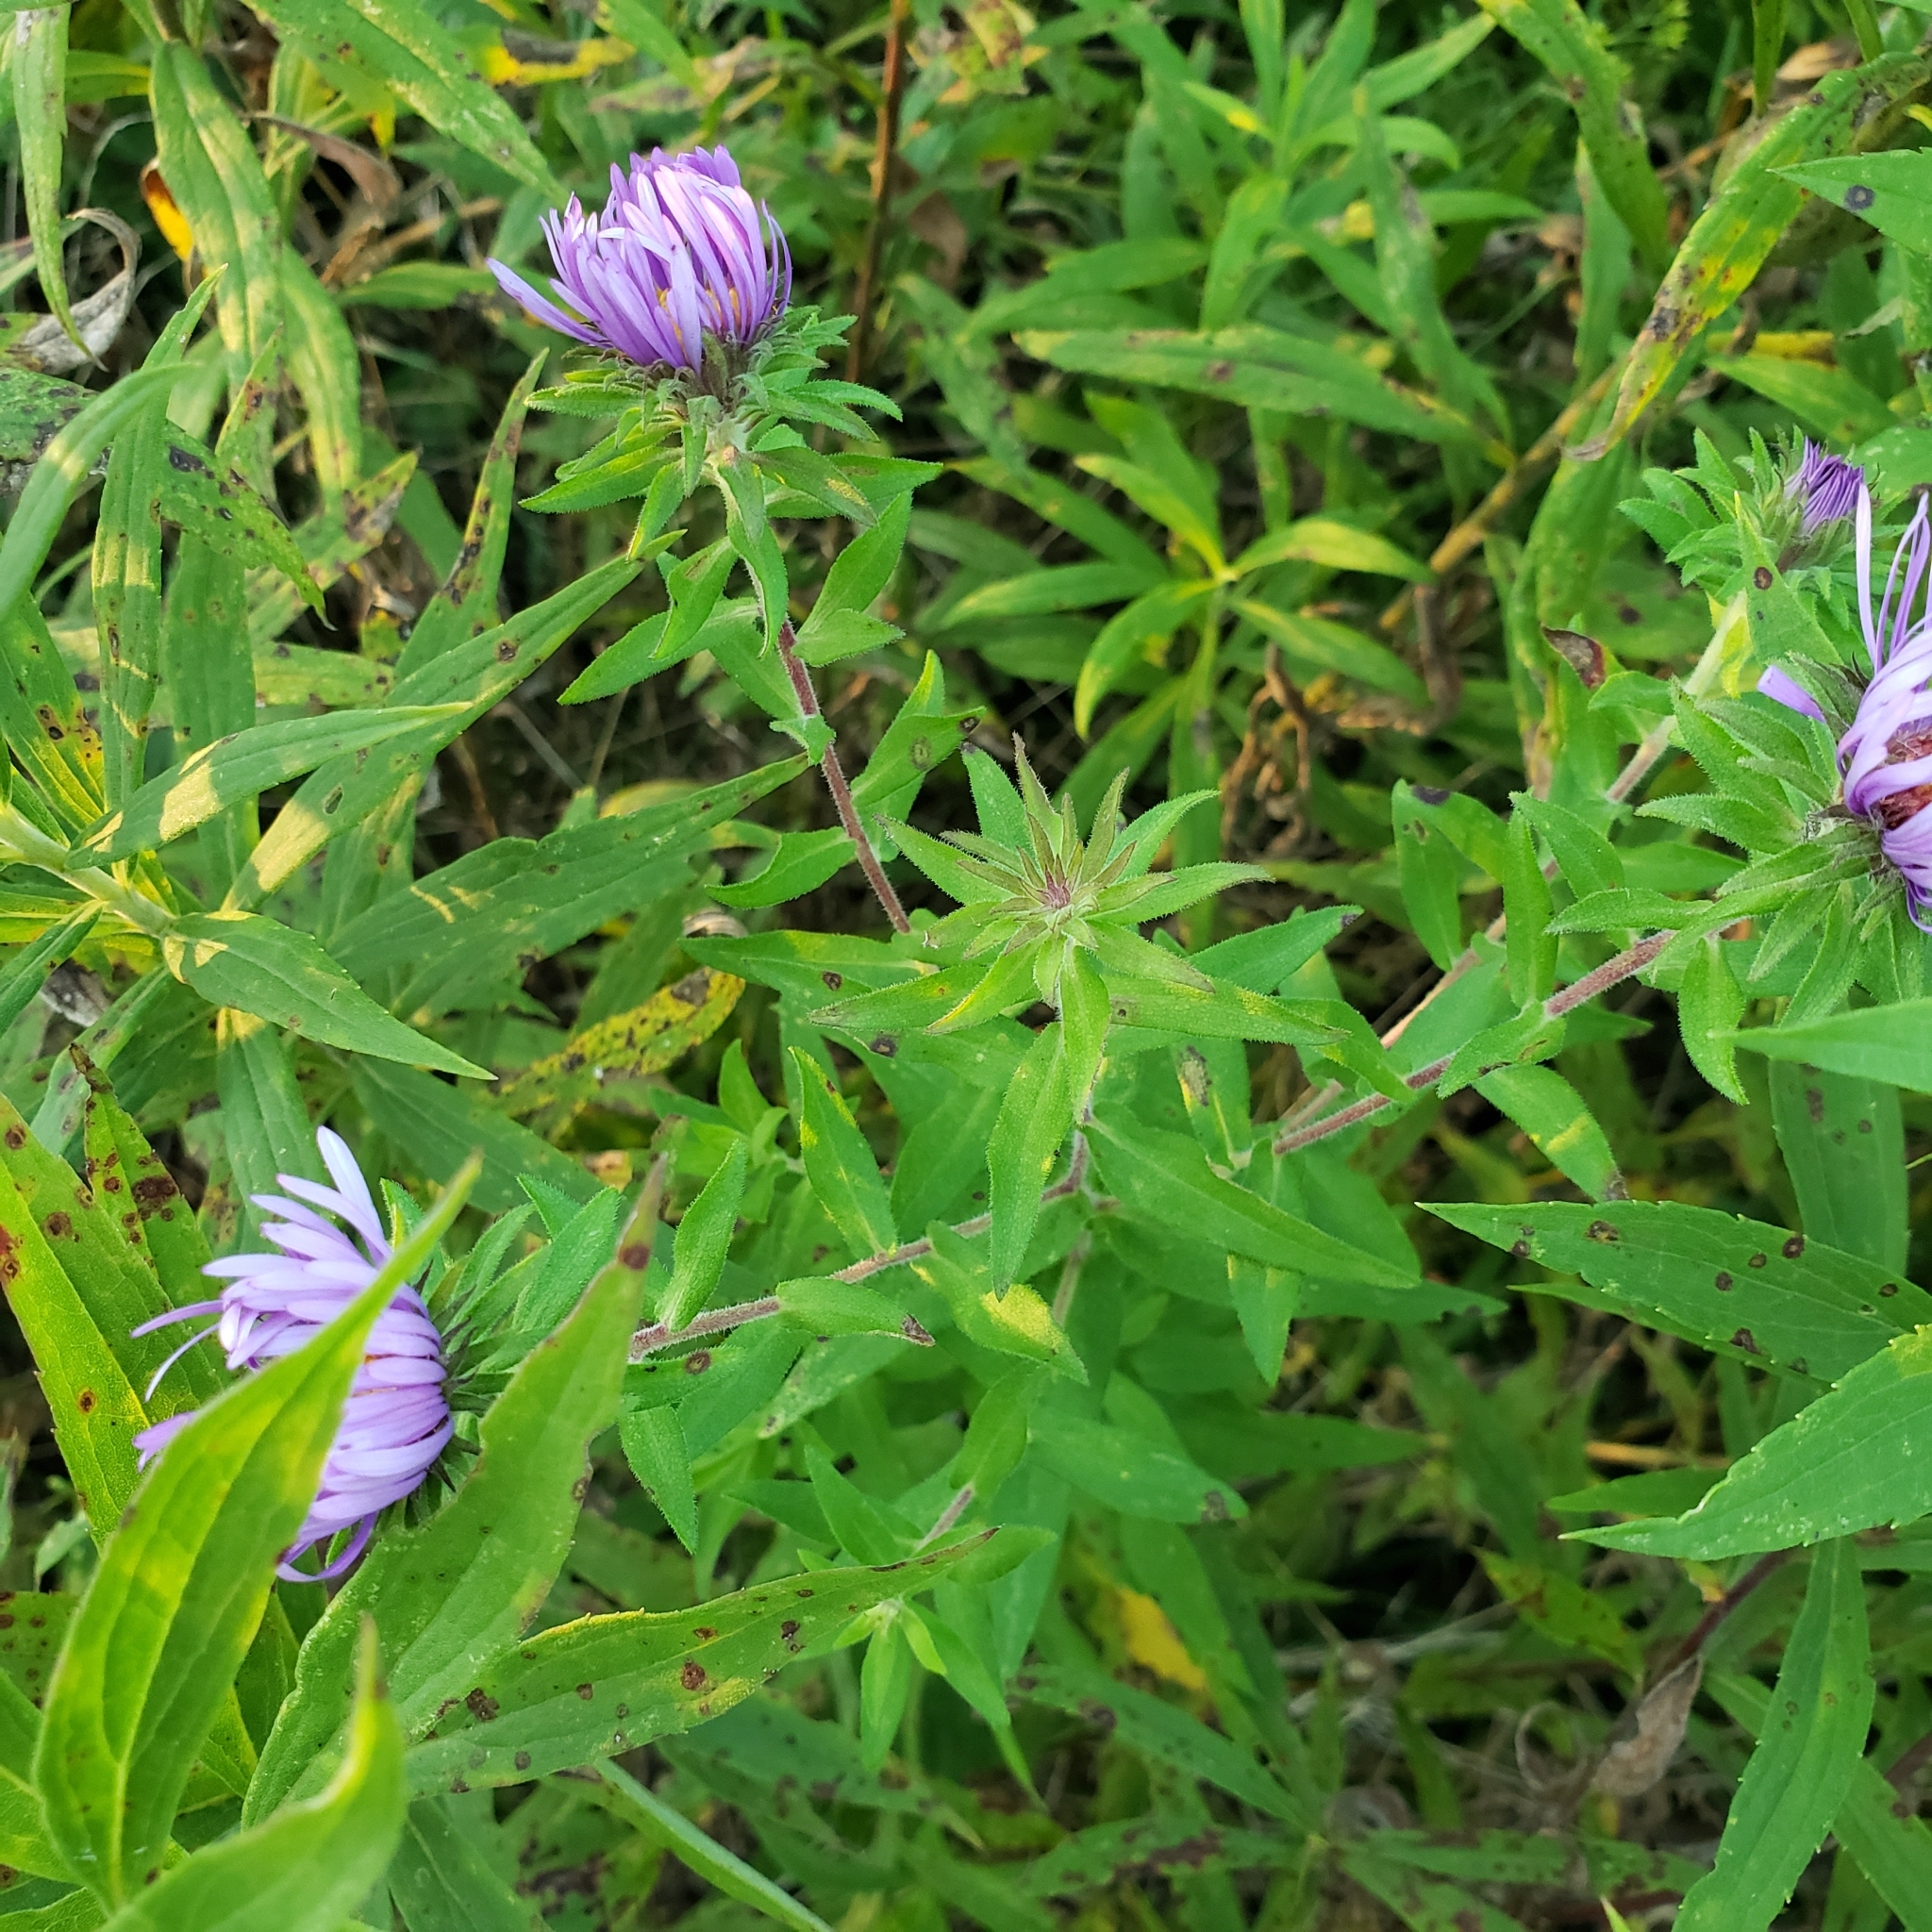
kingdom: Plantae
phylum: Tracheophyta
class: Magnoliopsida
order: Asterales
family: Asteraceae
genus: Symphyotrichum
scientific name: Symphyotrichum novae-angliae
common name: Michaelmas daisy
